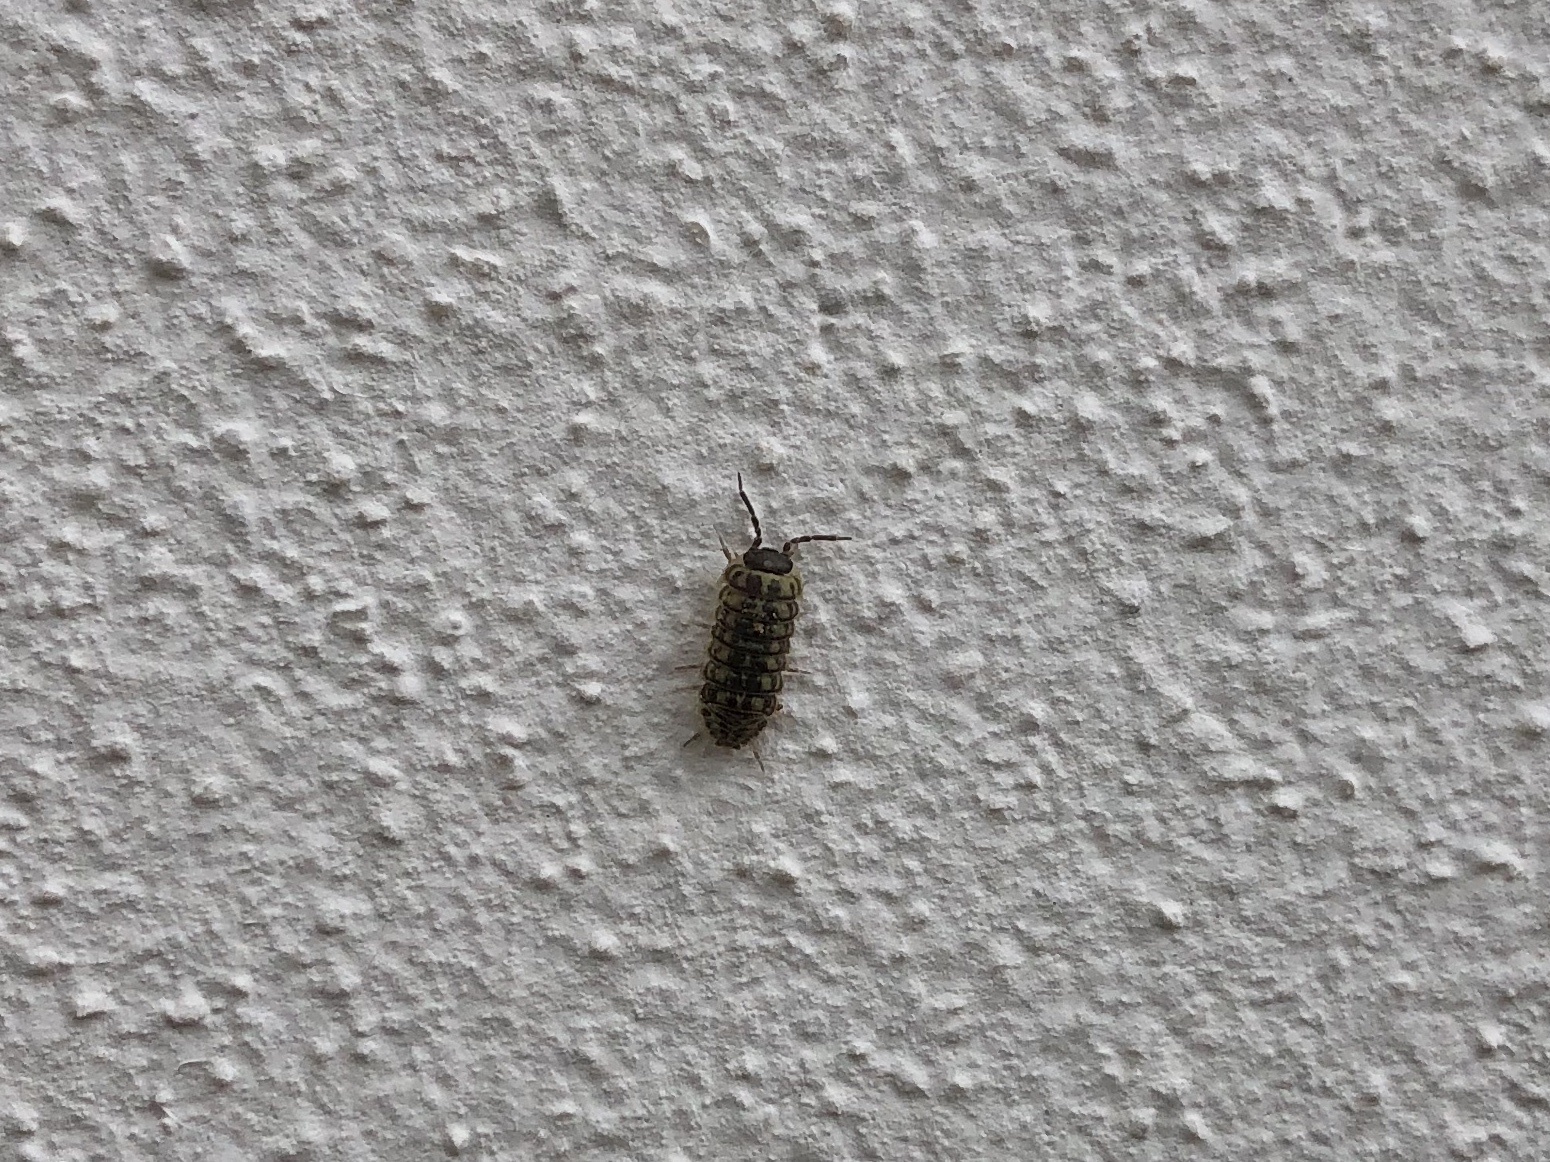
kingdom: Animalia
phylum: Arthropoda
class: Malacostraca
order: Isopoda
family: Armadillidiidae
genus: Armadillidium
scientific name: Armadillidium versicolor
